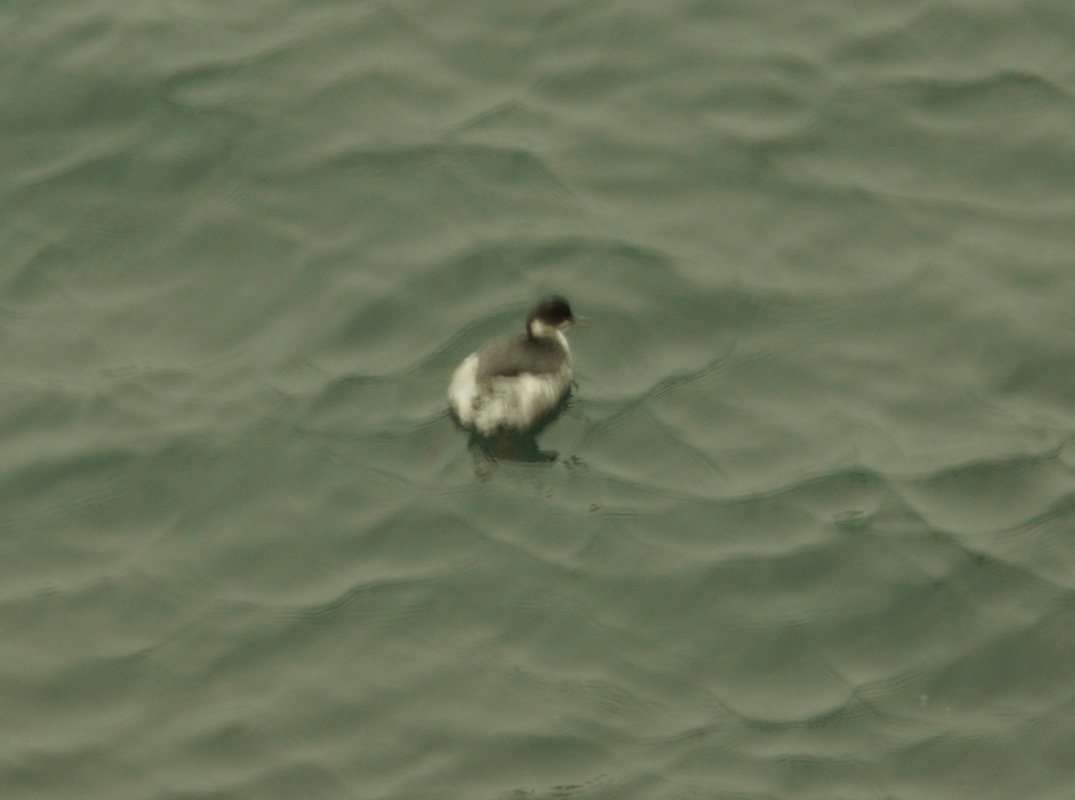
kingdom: Animalia
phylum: Chordata
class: Aves
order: Podicipediformes
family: Podicipedidae
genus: Podiceps
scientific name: Podiceps nigricollis
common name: Black-necked grebe
